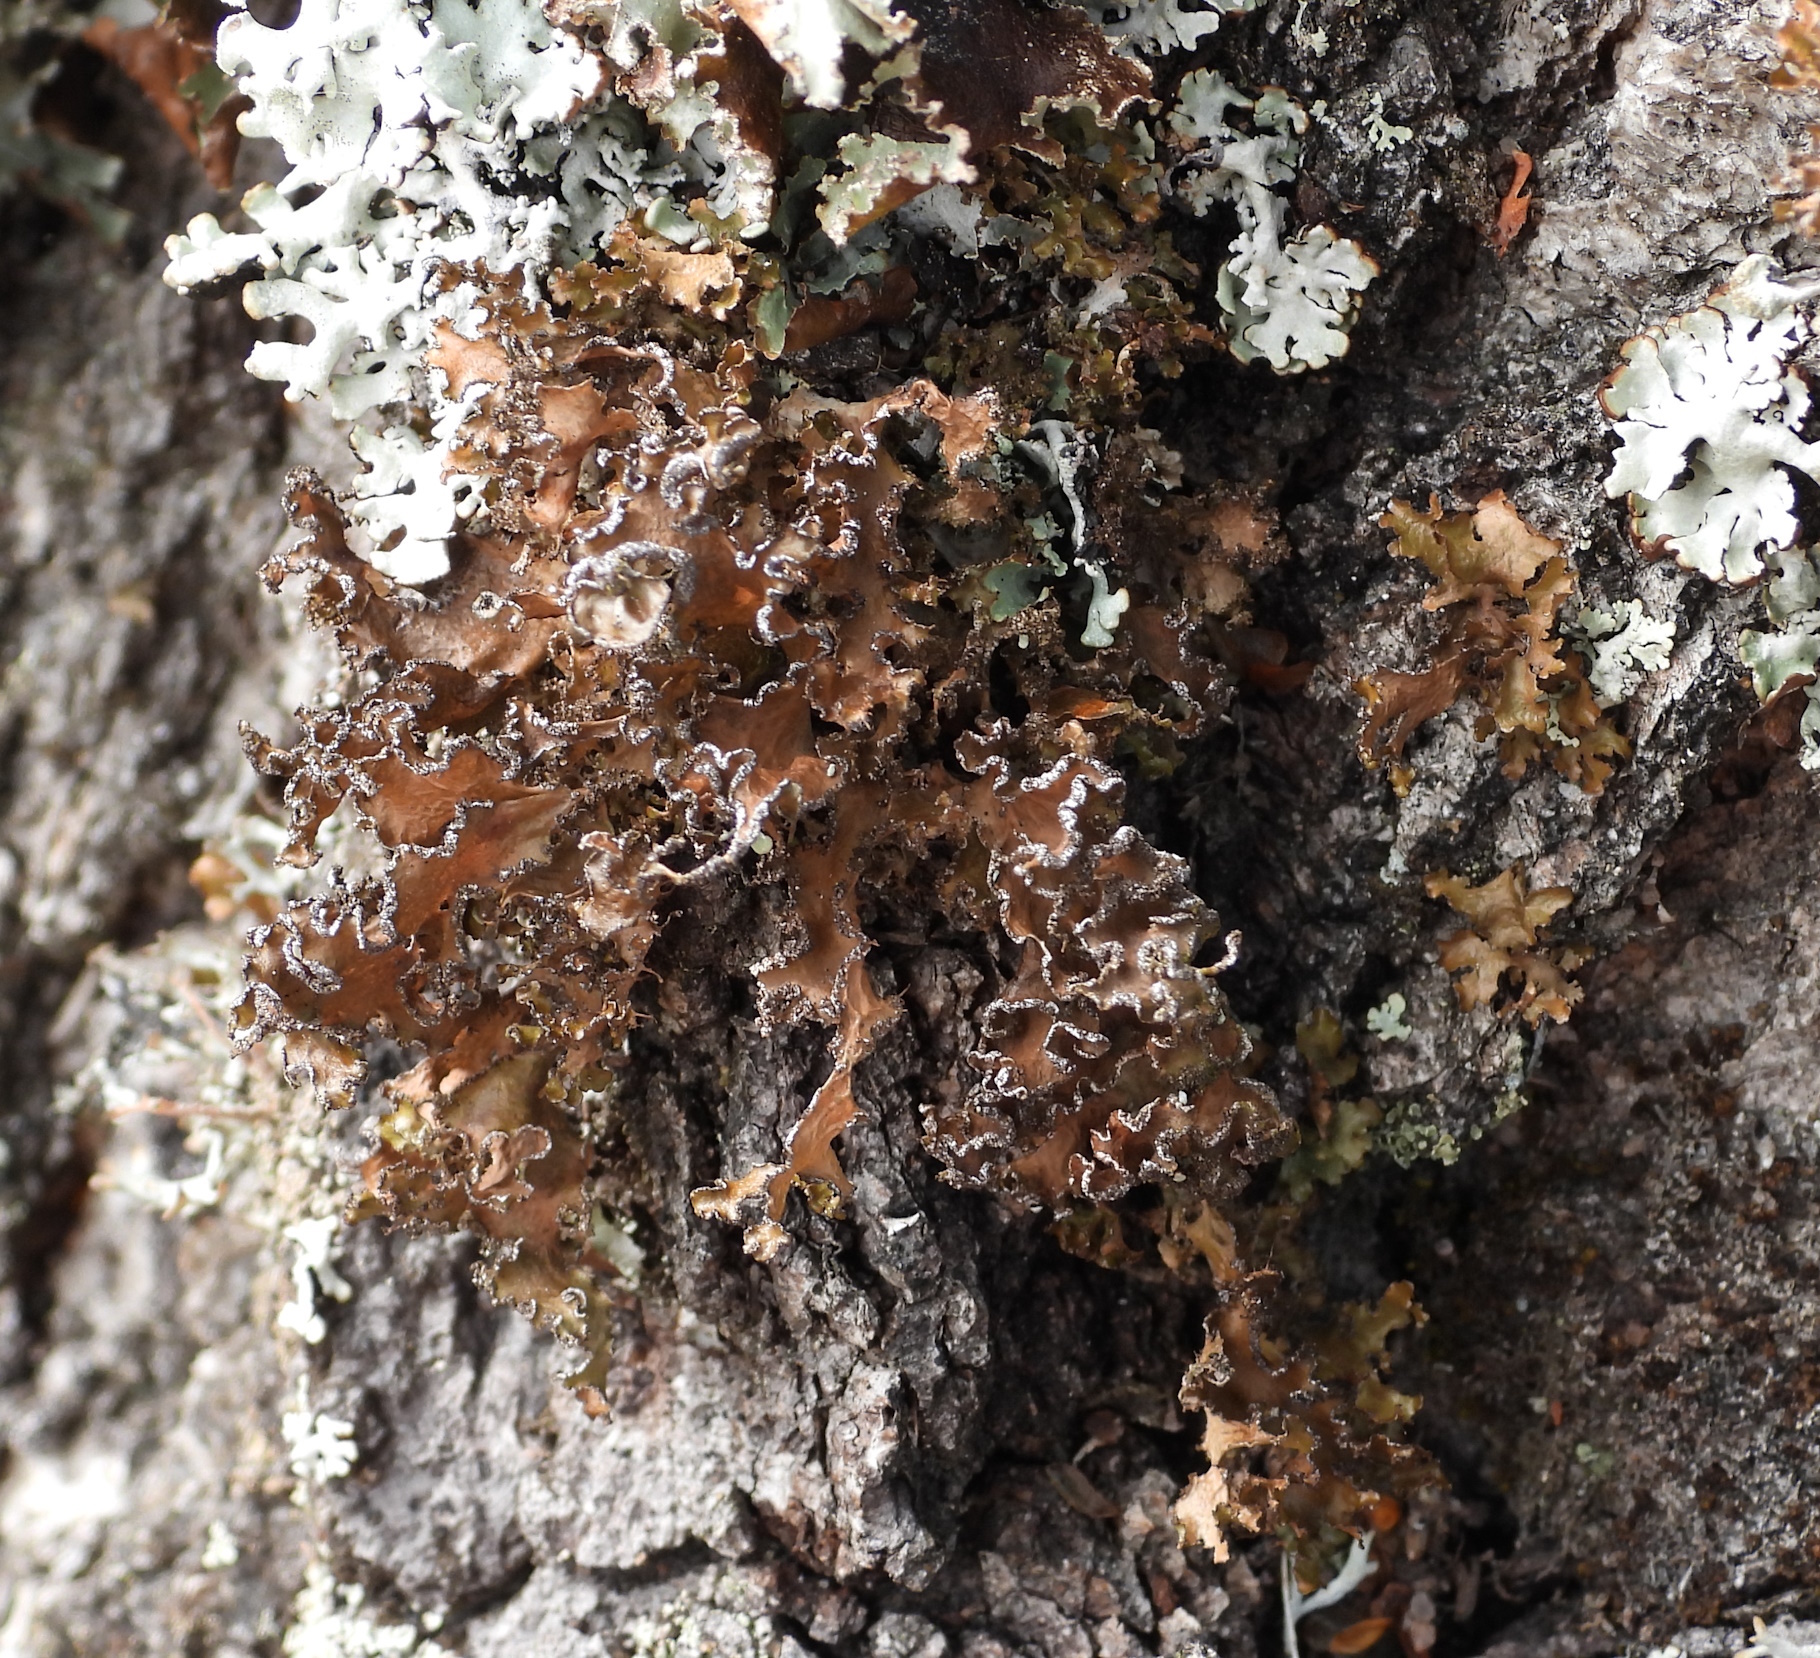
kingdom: Fungi
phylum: Ascomycota
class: Lecanoromycetes
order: Lecanorales
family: Parmeliaceae
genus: Nephromopsis
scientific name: Nephromopsis chlorophylla
